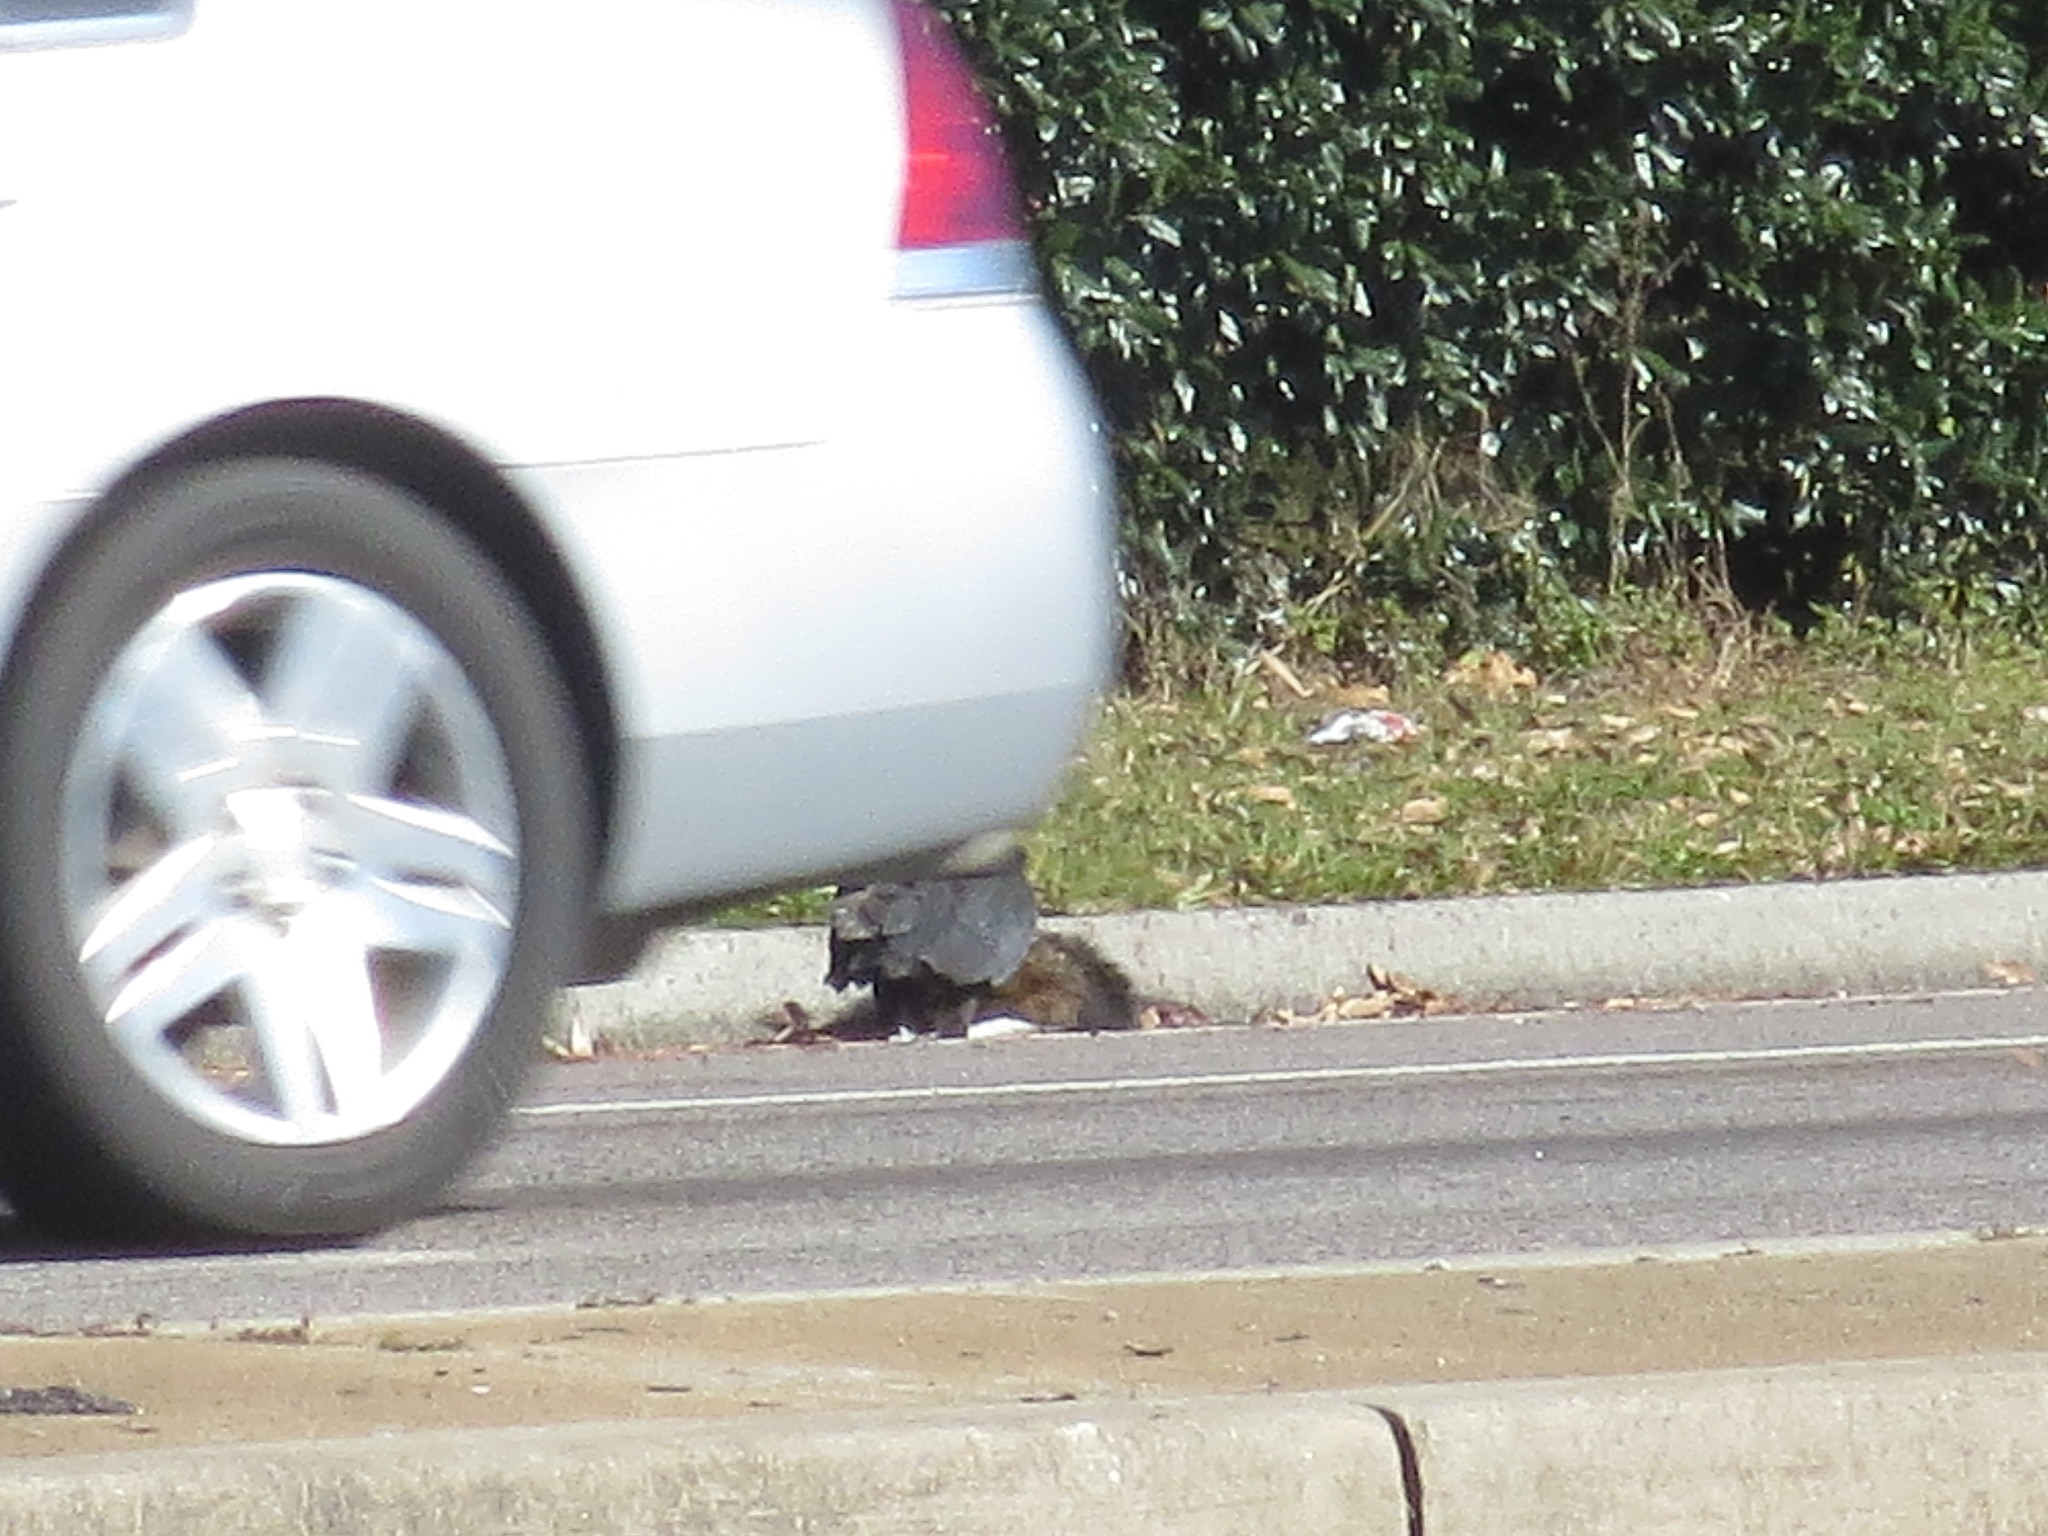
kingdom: Animalia
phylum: Chordata
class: Aves
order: Accipitriformes
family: Cathartidae
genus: Coragyps
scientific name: Coragyps atratus
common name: Black vulture
